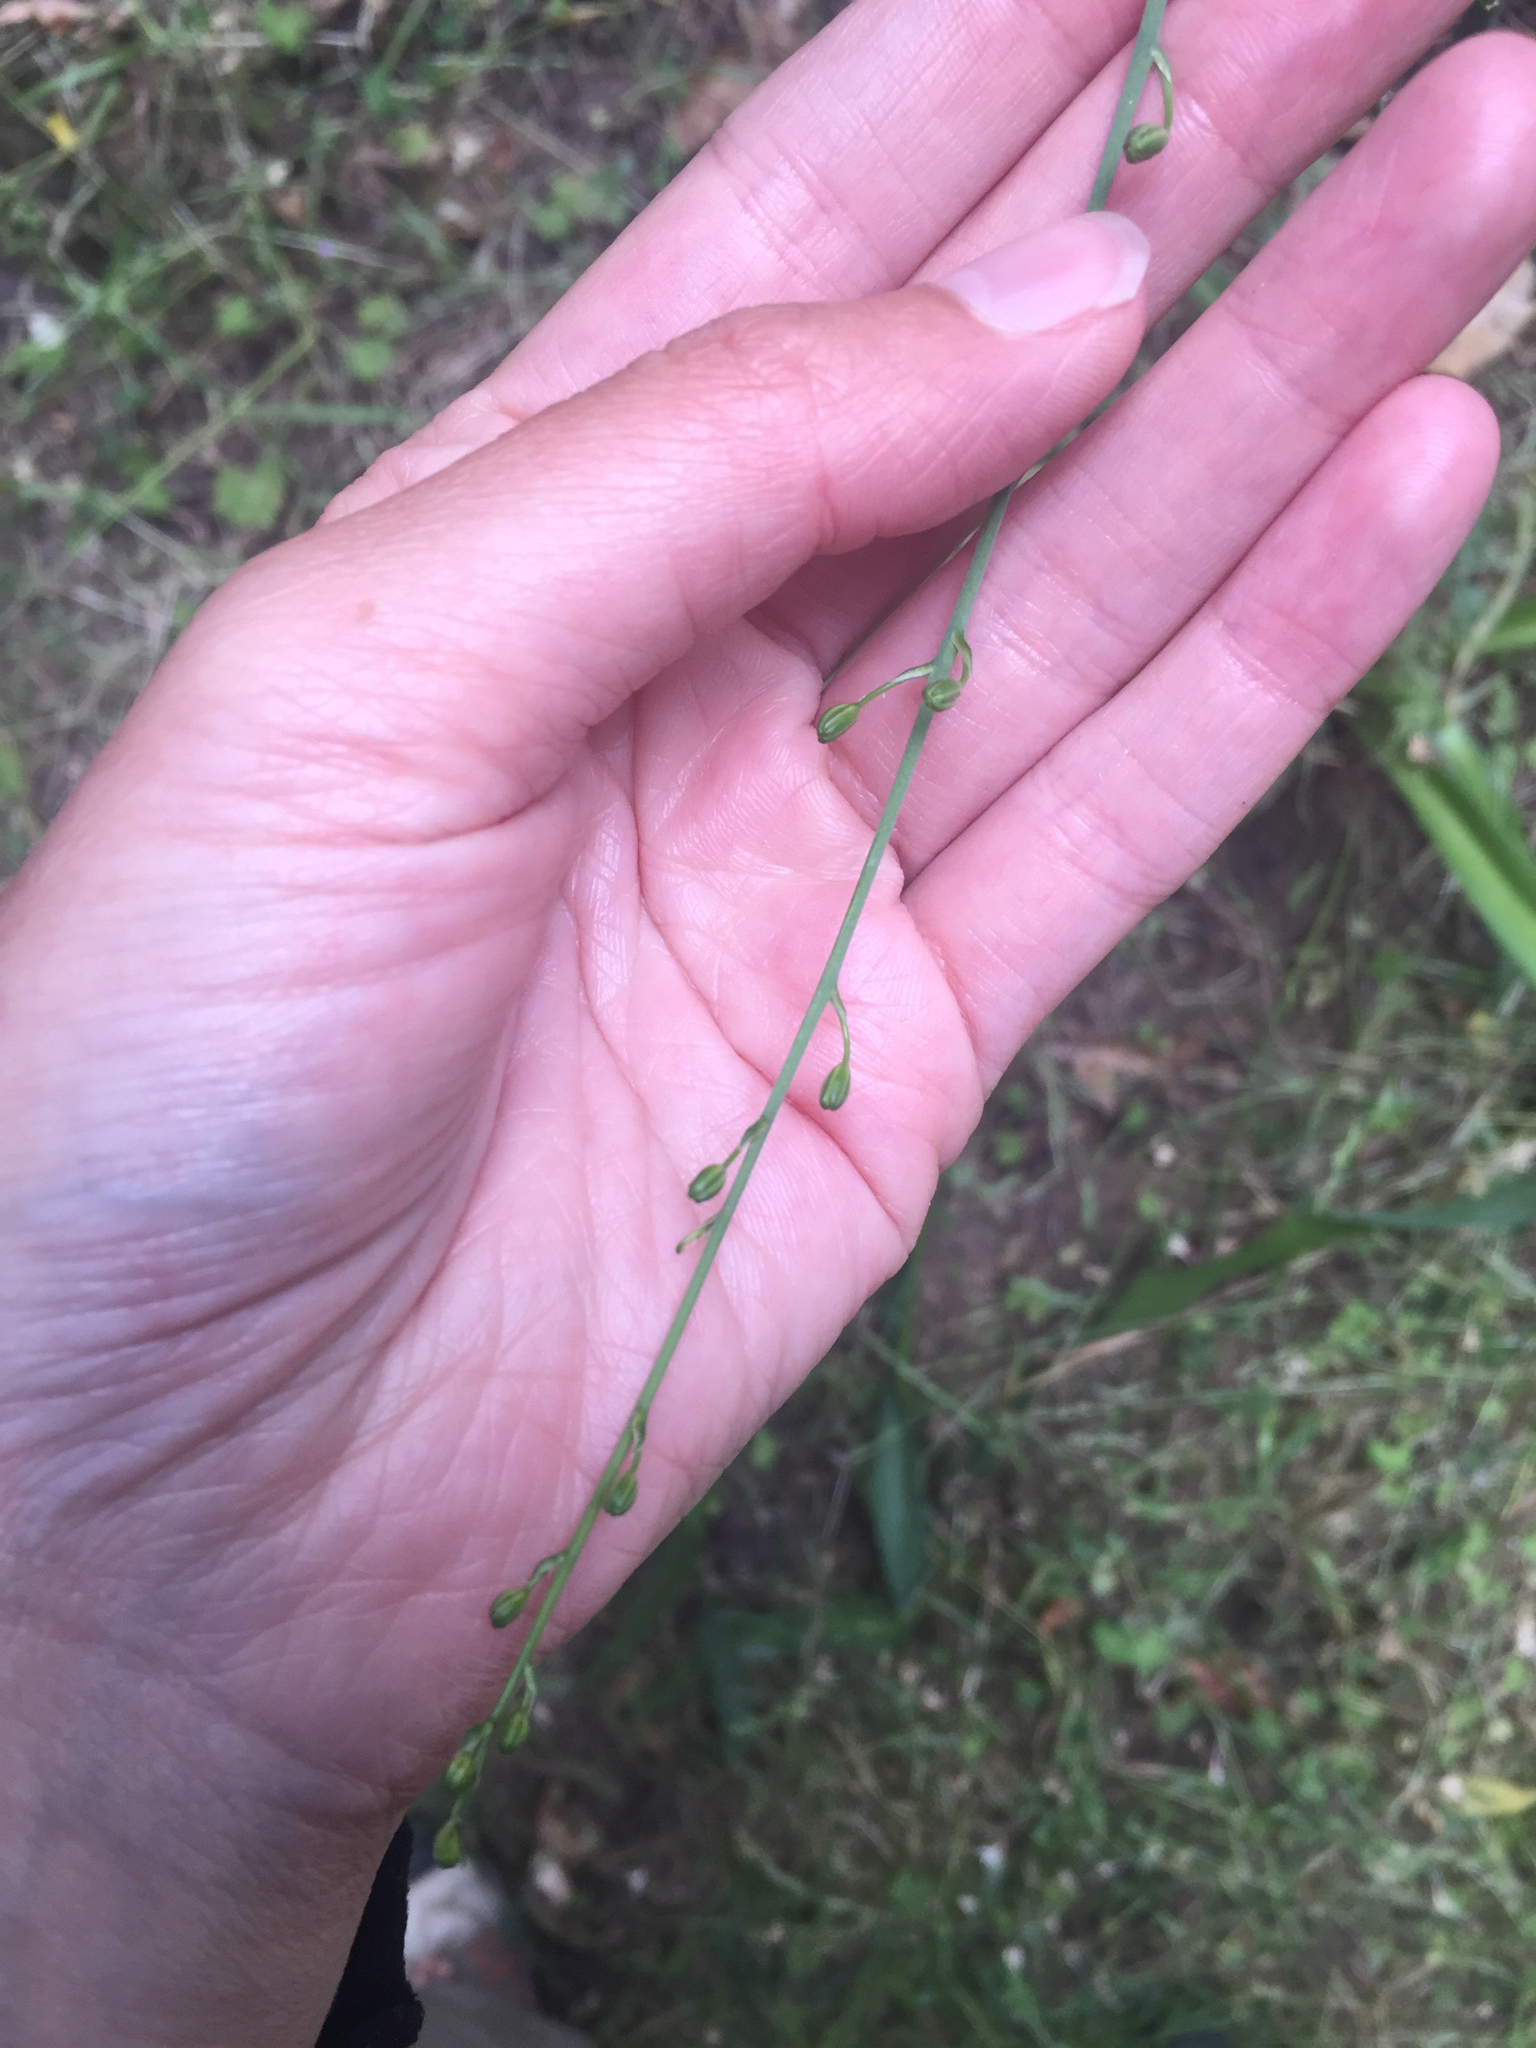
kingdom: Plantae
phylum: Tracheophyta
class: Liliopsida
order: Asparagales
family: Asparagaceae
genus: Chlorogalum
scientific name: Chlorogalum pomeridianum
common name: Amole
